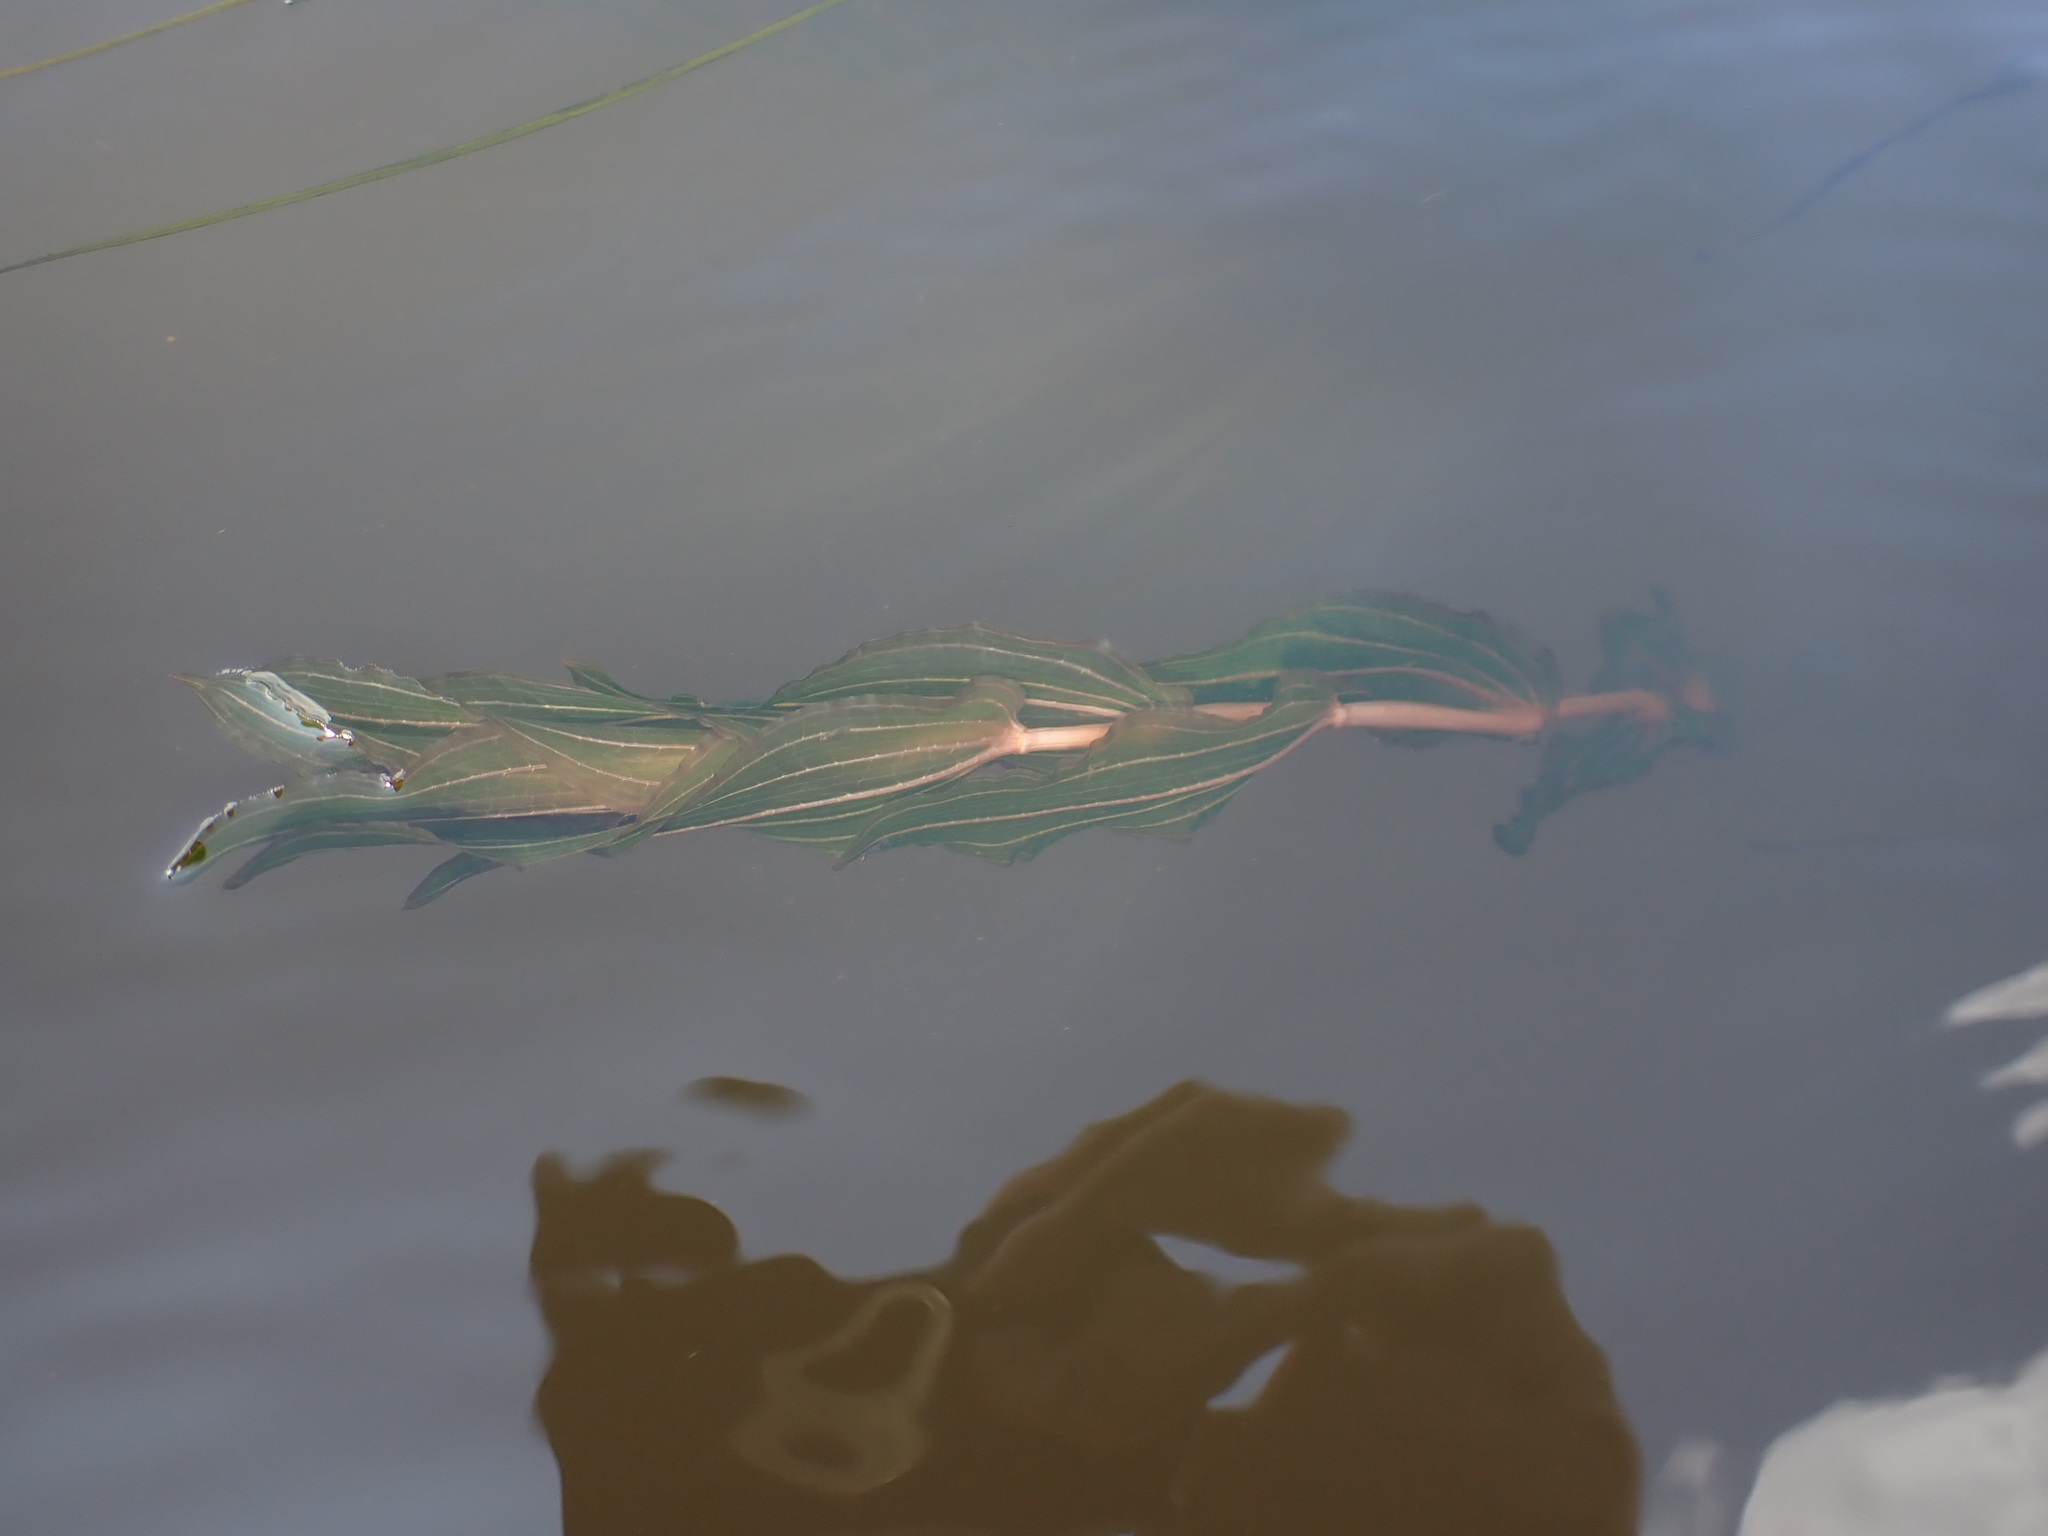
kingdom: Plantae
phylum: Tracheophyta
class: Liliopsida
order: Alismatales
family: Potamogetonaceae
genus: Potamogeton
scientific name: Potamogeton perfoliatus
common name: Perfoliate pondweed
